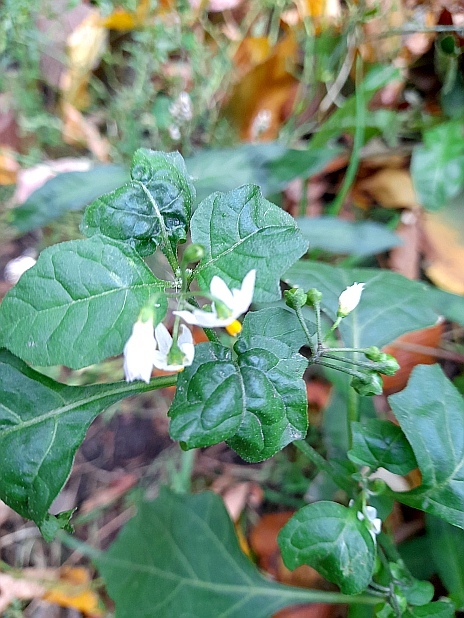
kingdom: Plantae
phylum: Tracheophyta
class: Magnoliopsida
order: Solanales
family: Solanaceae
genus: Solanum
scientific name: Solanum nigrum
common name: Black nightshade
